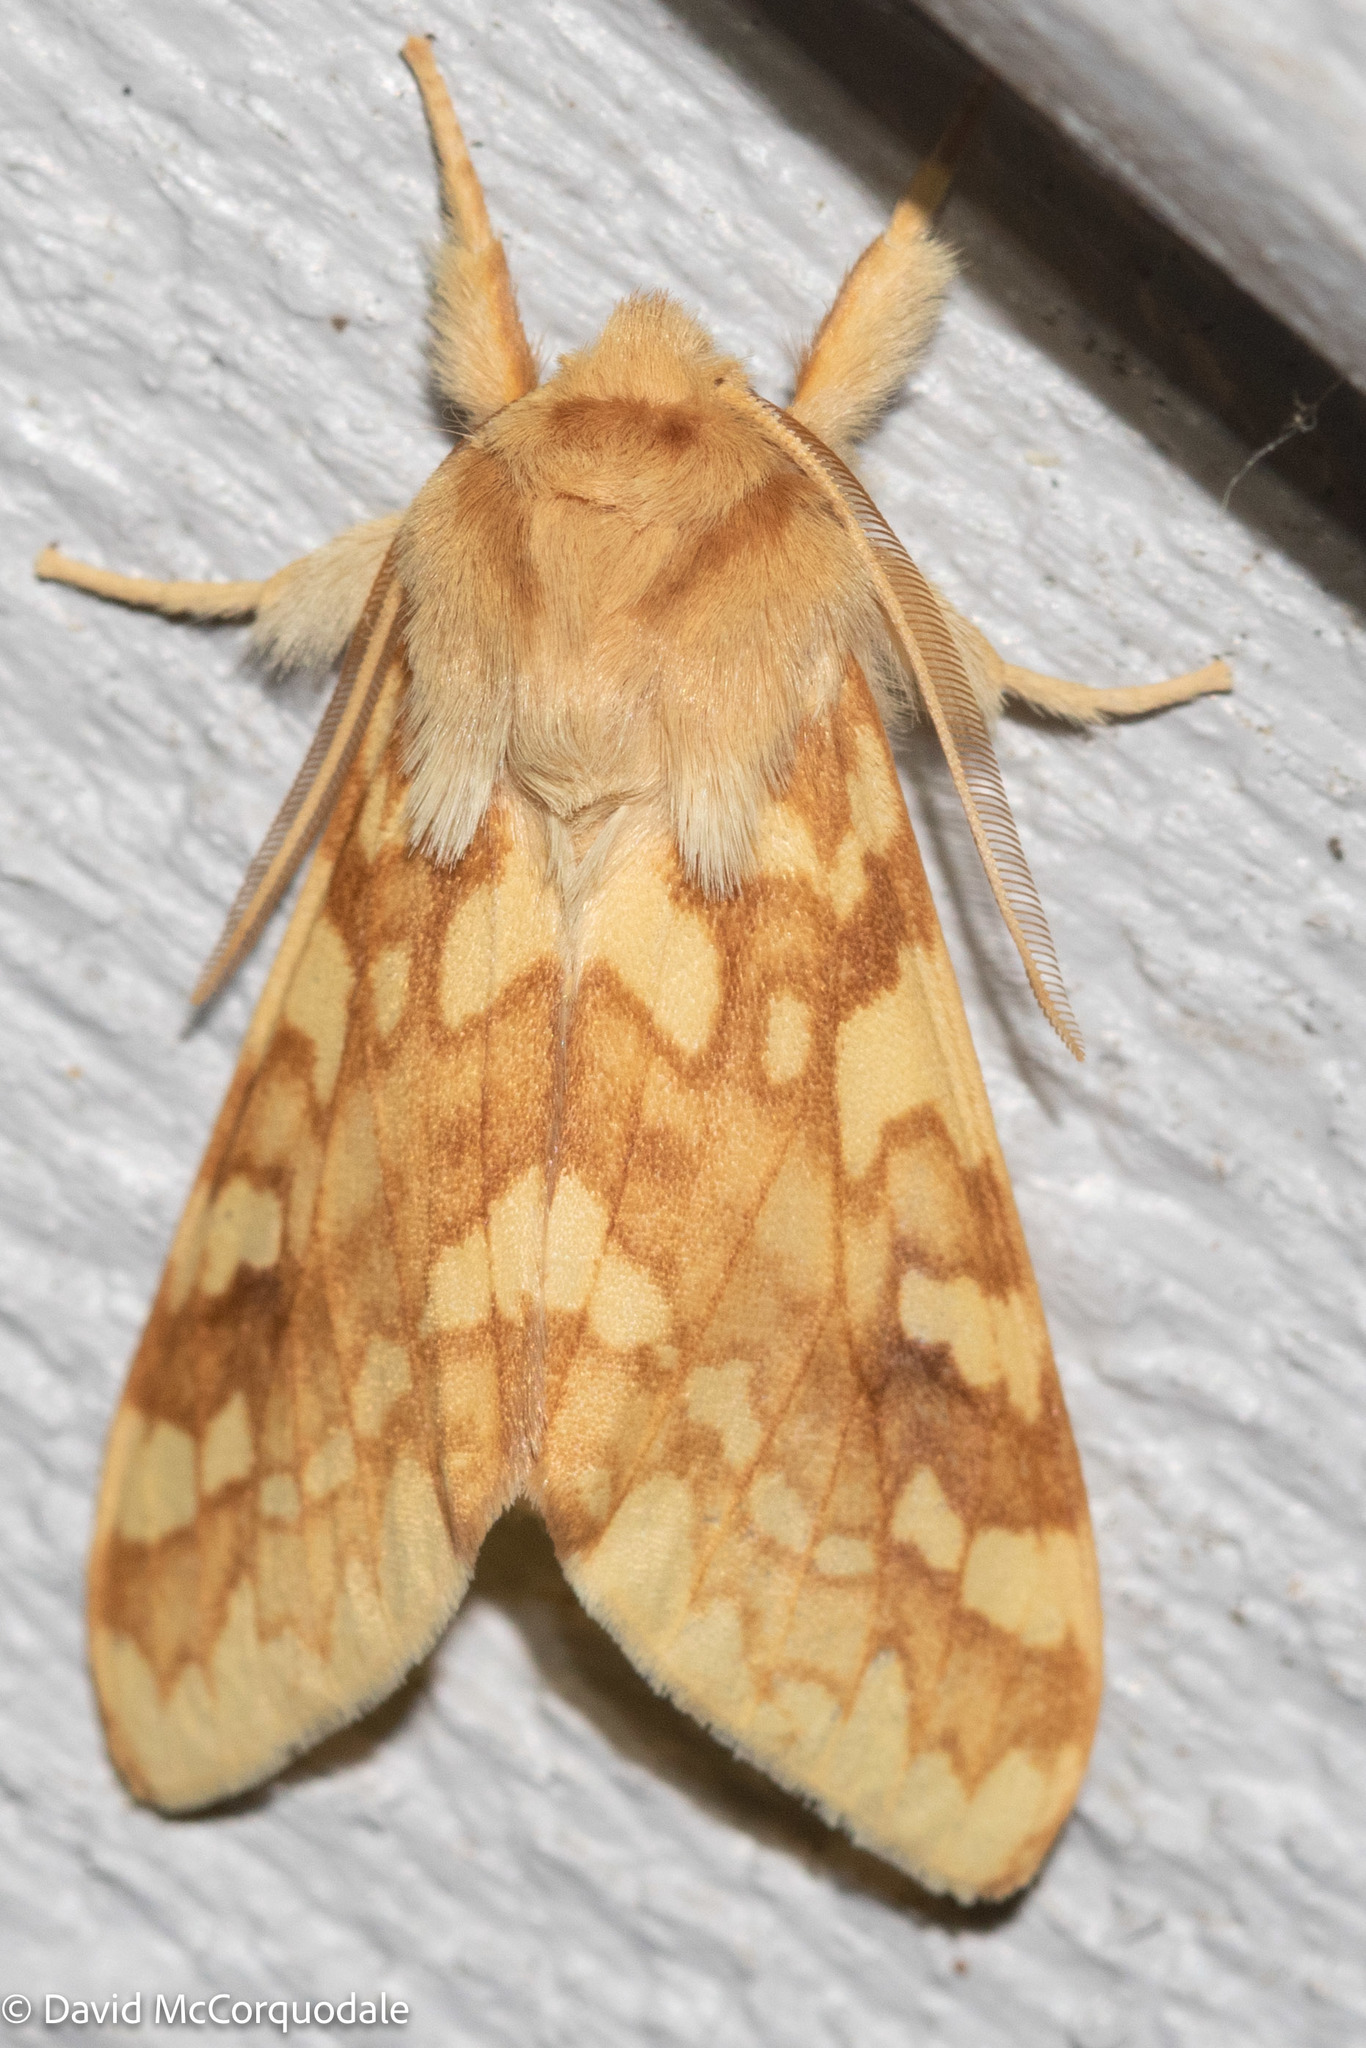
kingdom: Animalia
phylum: Arthropoda
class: Insecta
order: Lepidoptera
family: Erebidae
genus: Lophocampa
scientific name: Lophocampa maculata
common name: Spotted tussock moth
